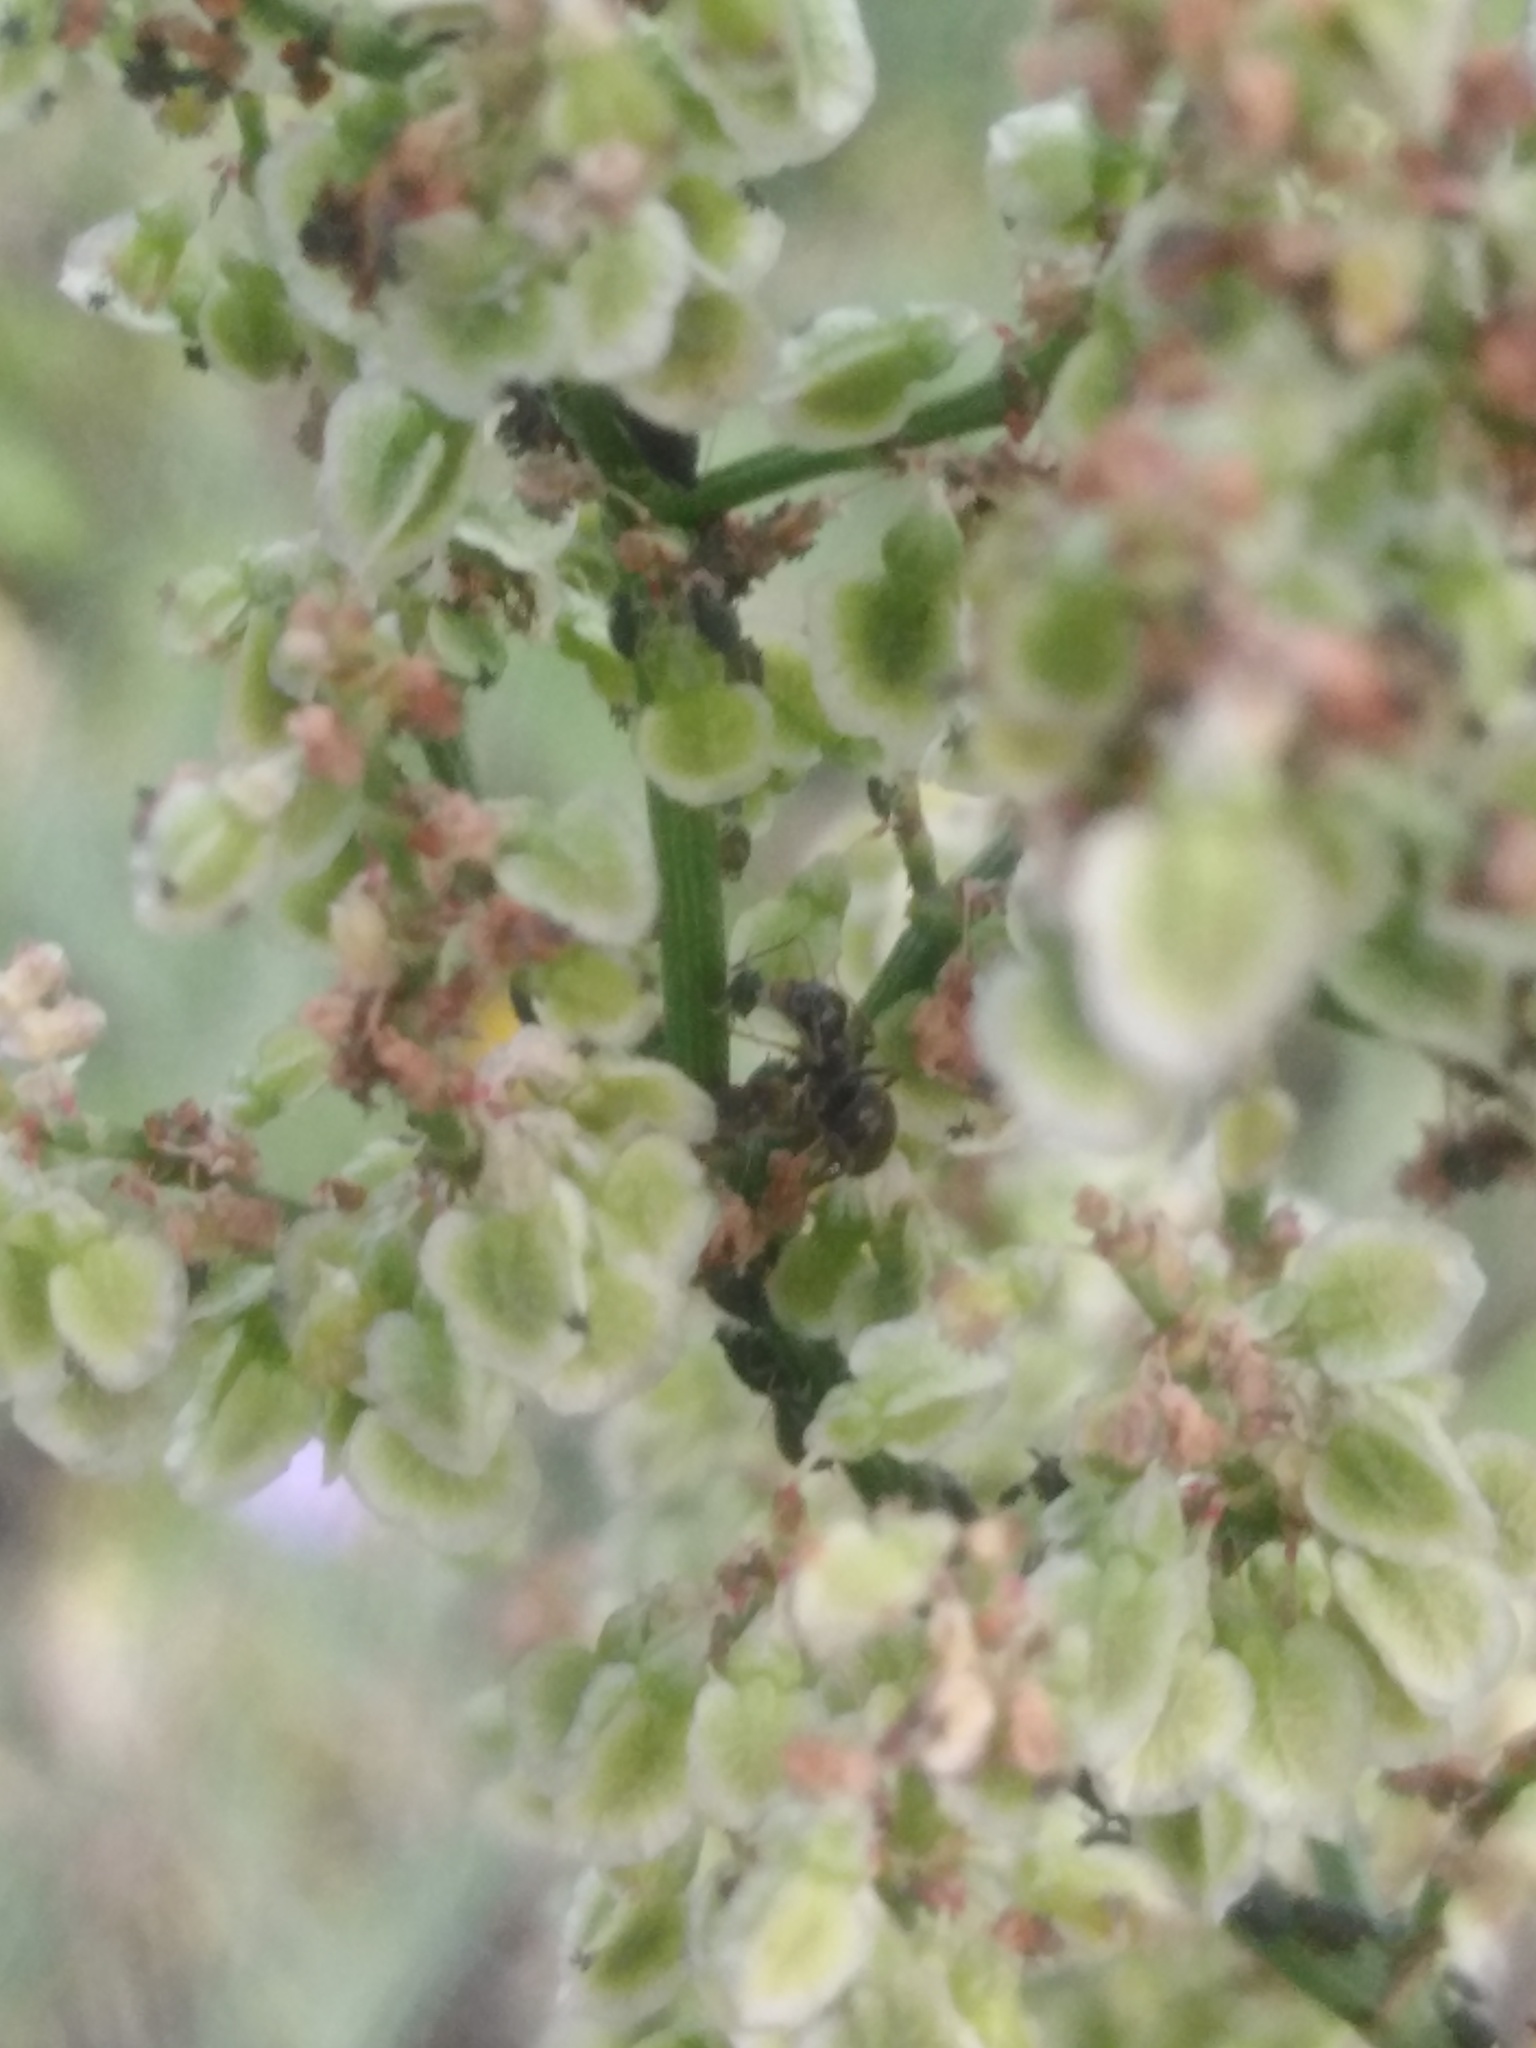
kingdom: Plantae
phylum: Tracheophyta
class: Magnoliopsida
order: Caryophyllales
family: Polygonaceae
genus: Rumex
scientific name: Rumex thyrsiflorus
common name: Garden sorrel
